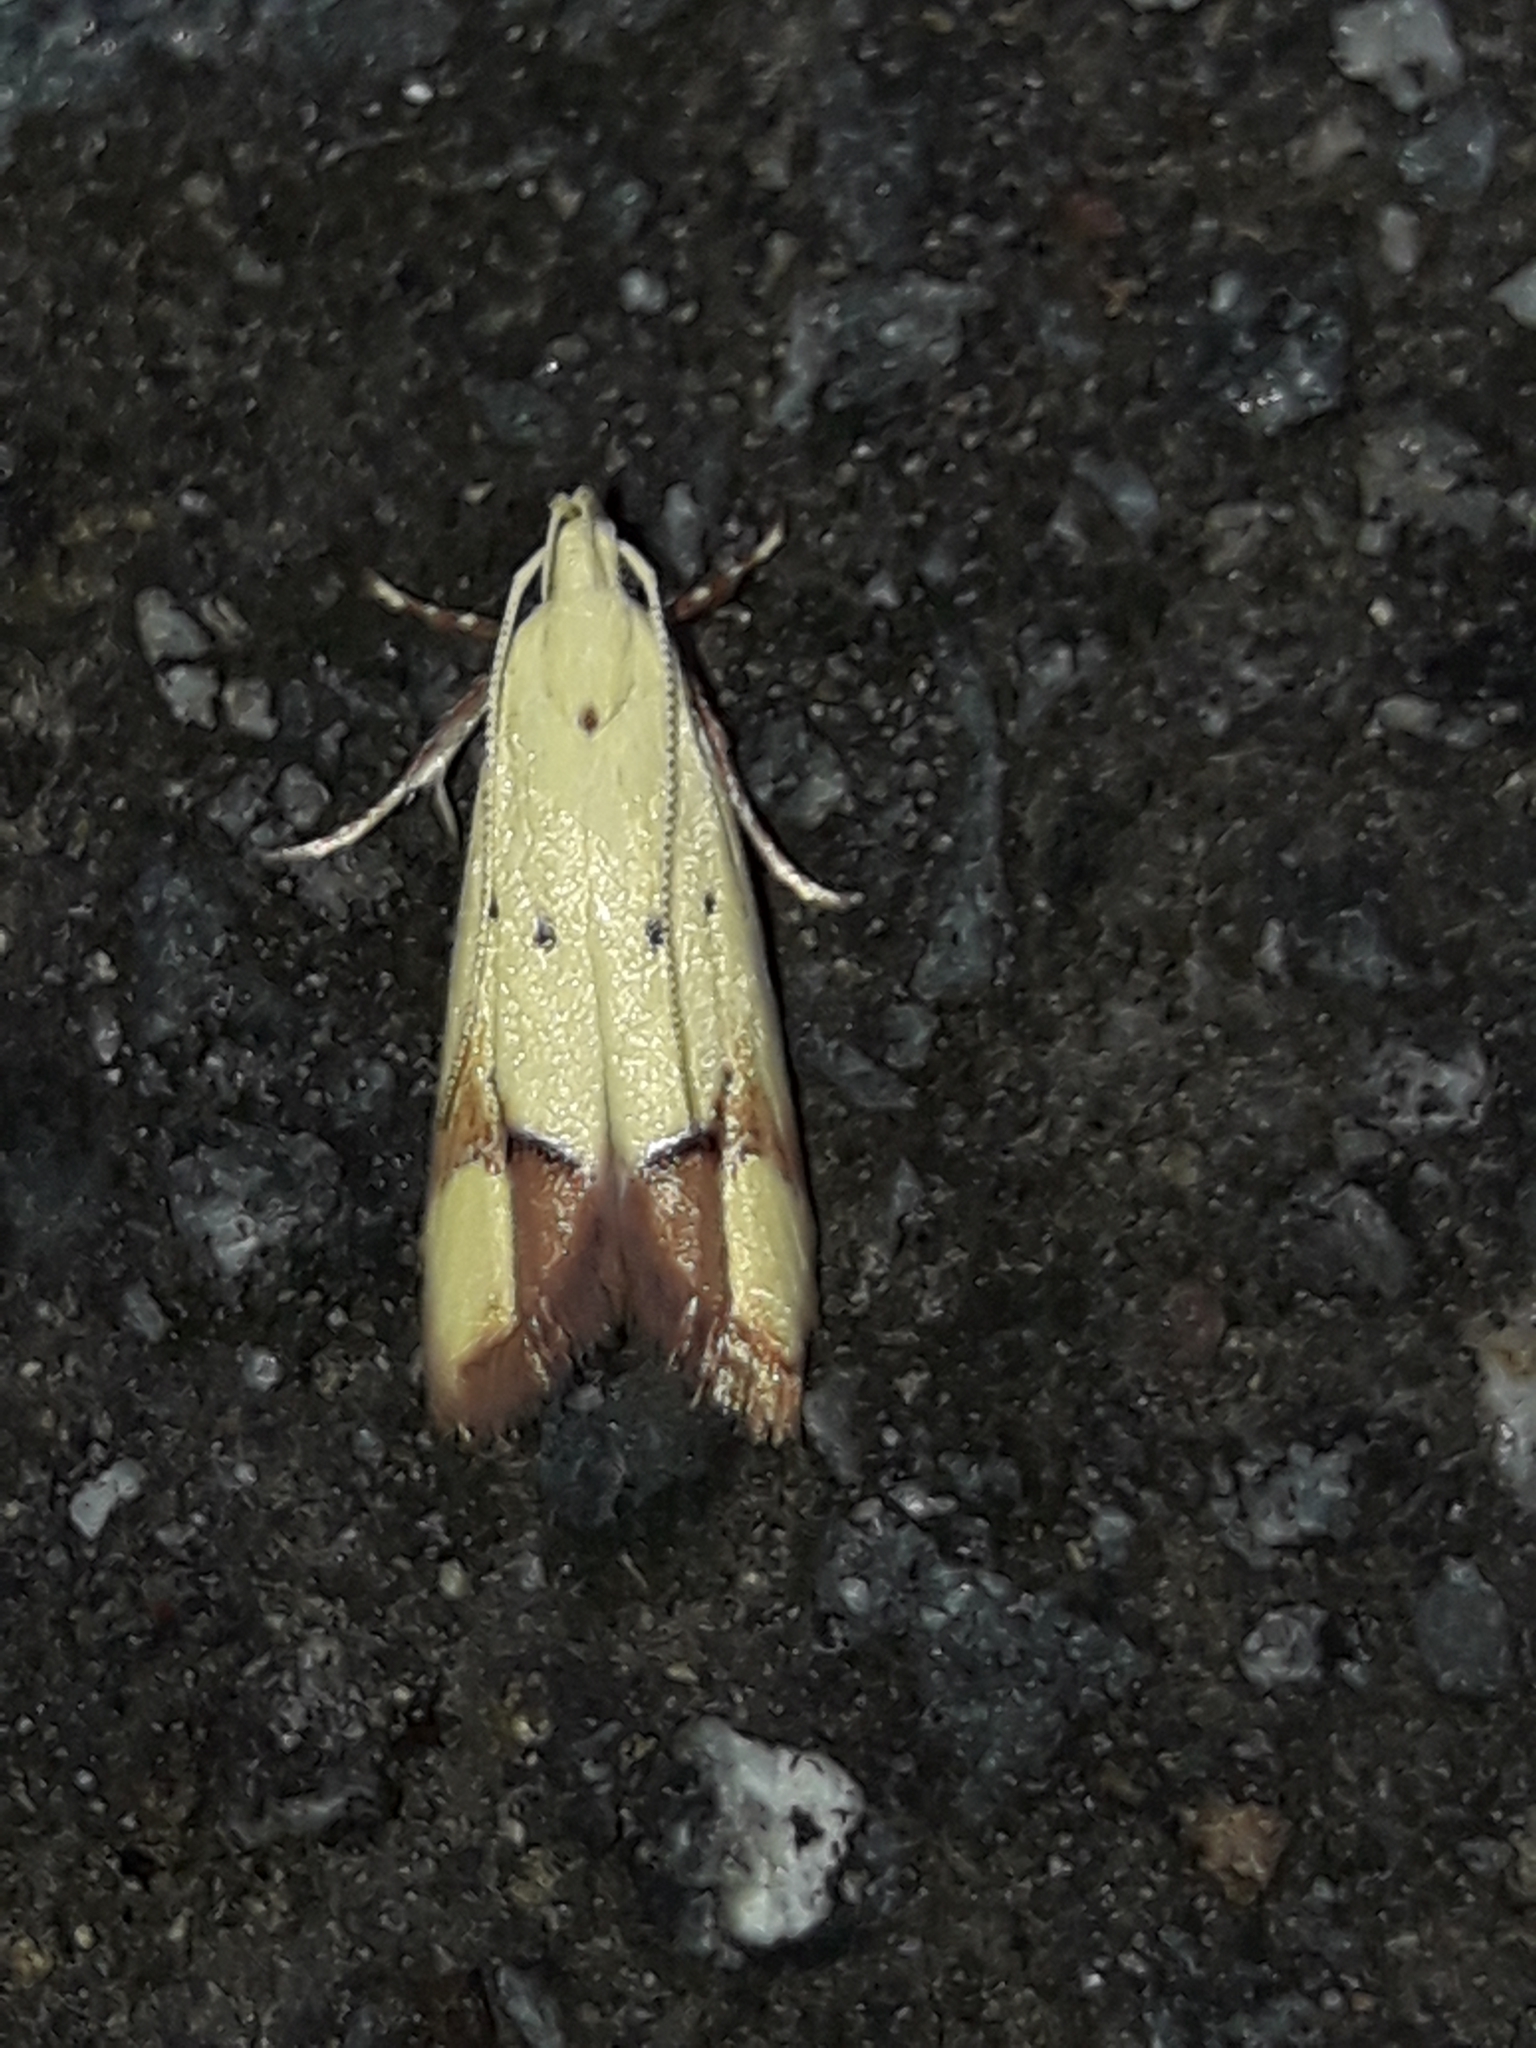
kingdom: Animalia
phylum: Arthropoda
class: Insecta
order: Lepidoptera
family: Oecophoridae
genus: Gymnobathra
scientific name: Gymnobathra flavidella
